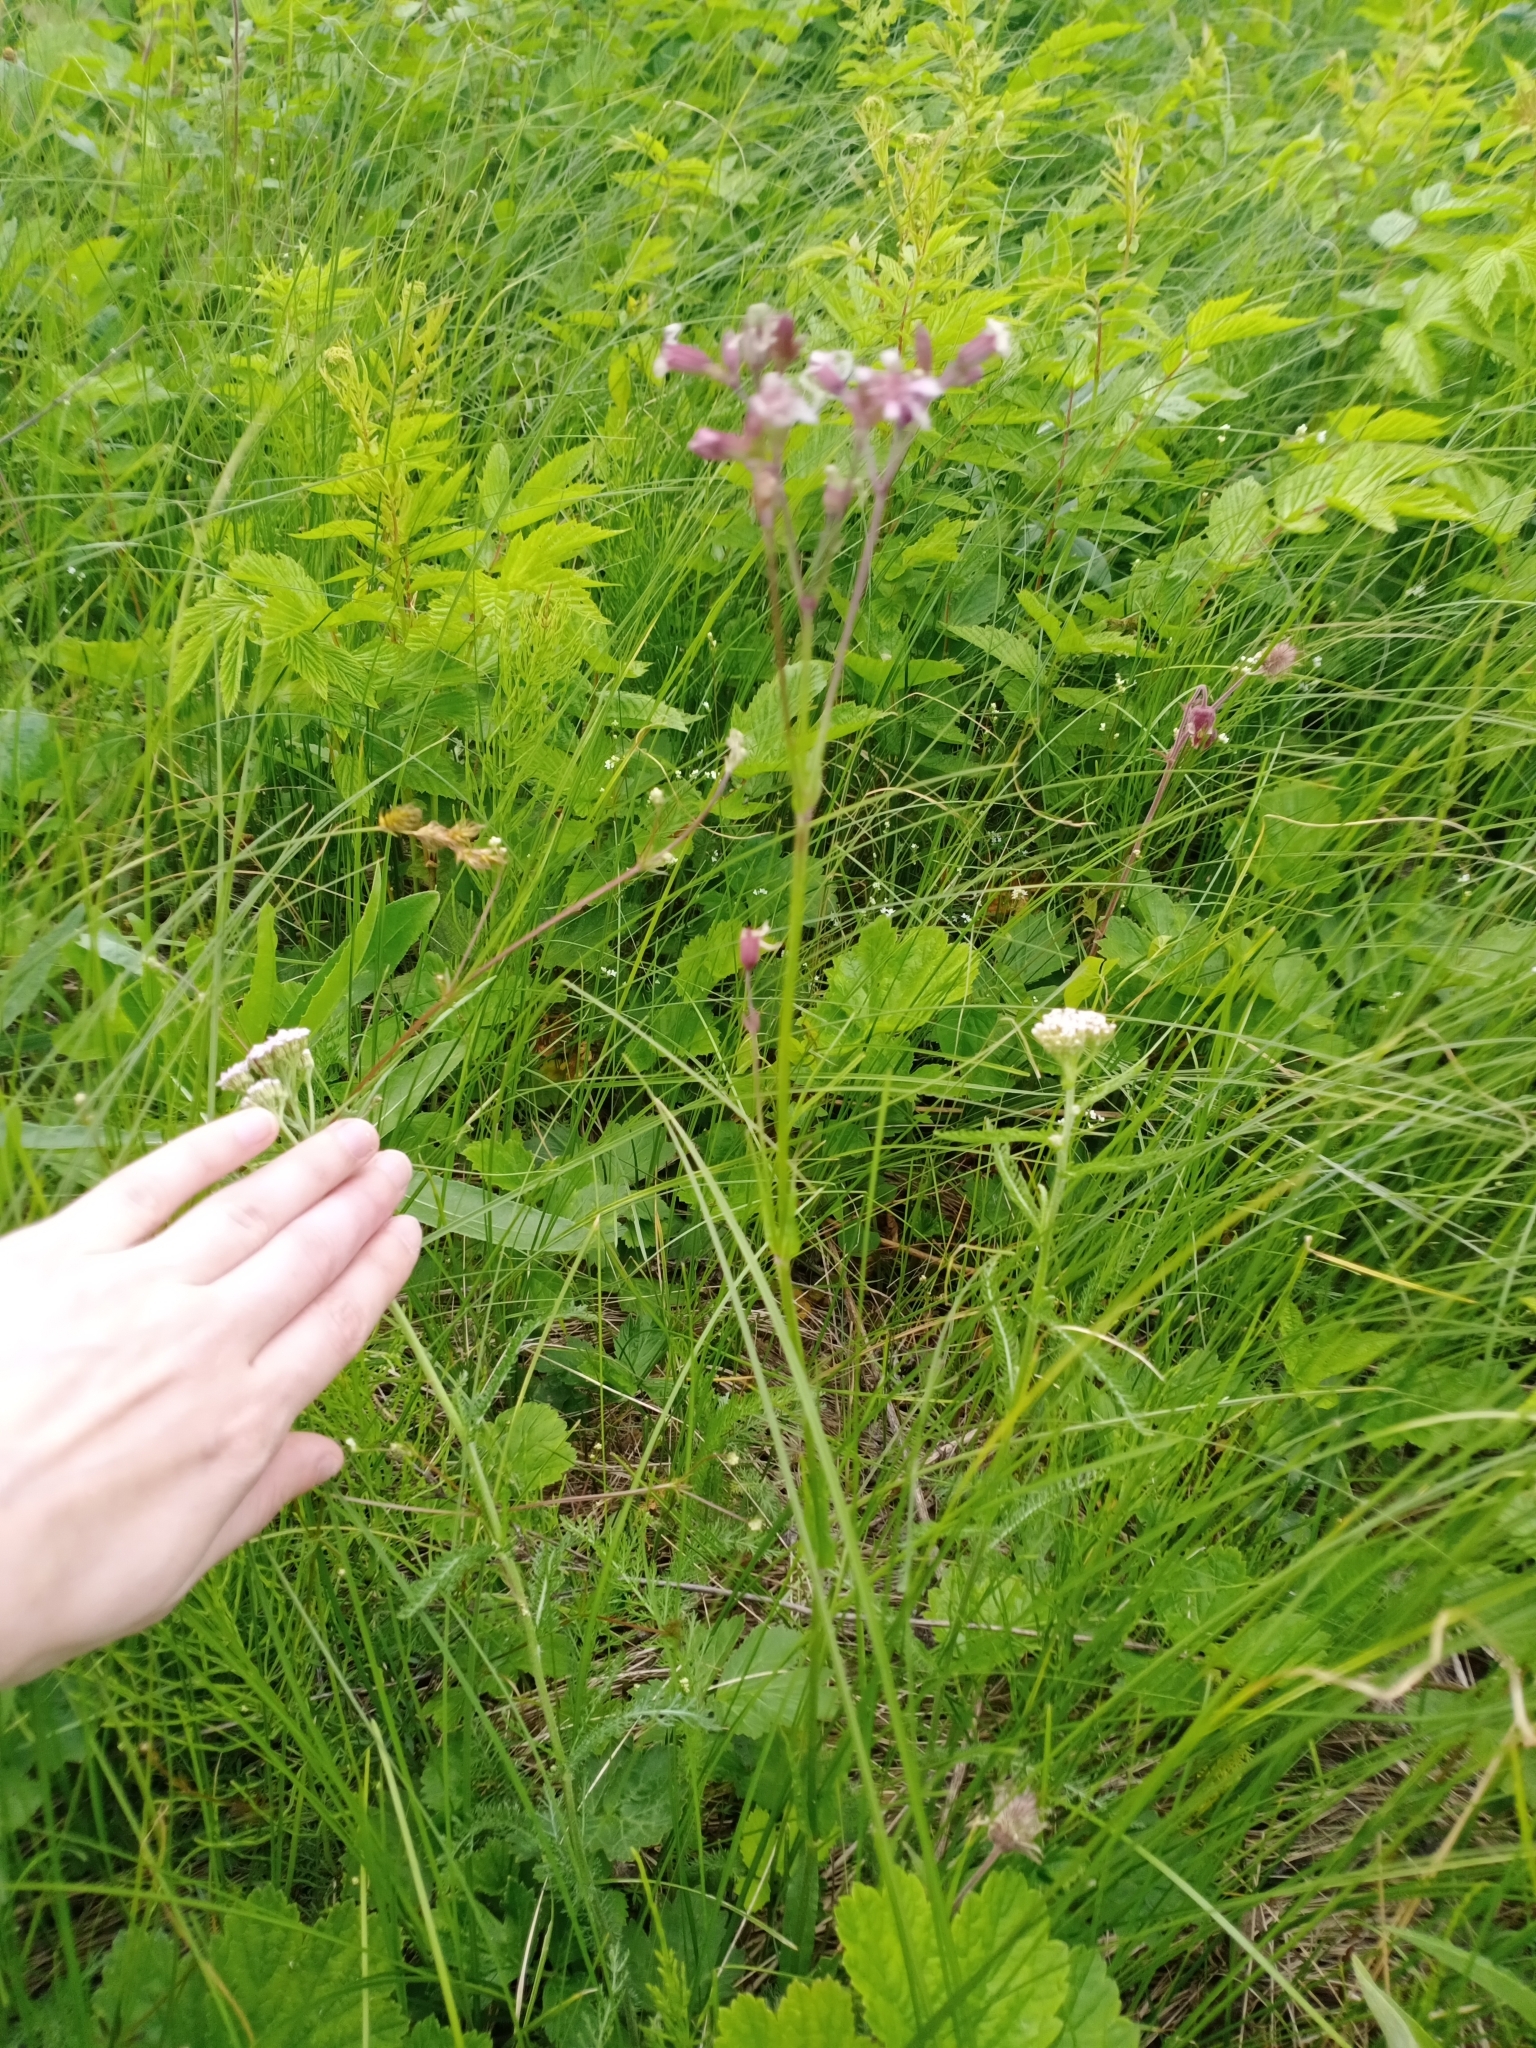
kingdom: Plantae
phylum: Tracheophyta
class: Magnoliopsida
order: Caryophyllales
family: Caryophyllaceae
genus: Silene
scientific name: Silene flos-cuculi
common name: Ragged-robin
